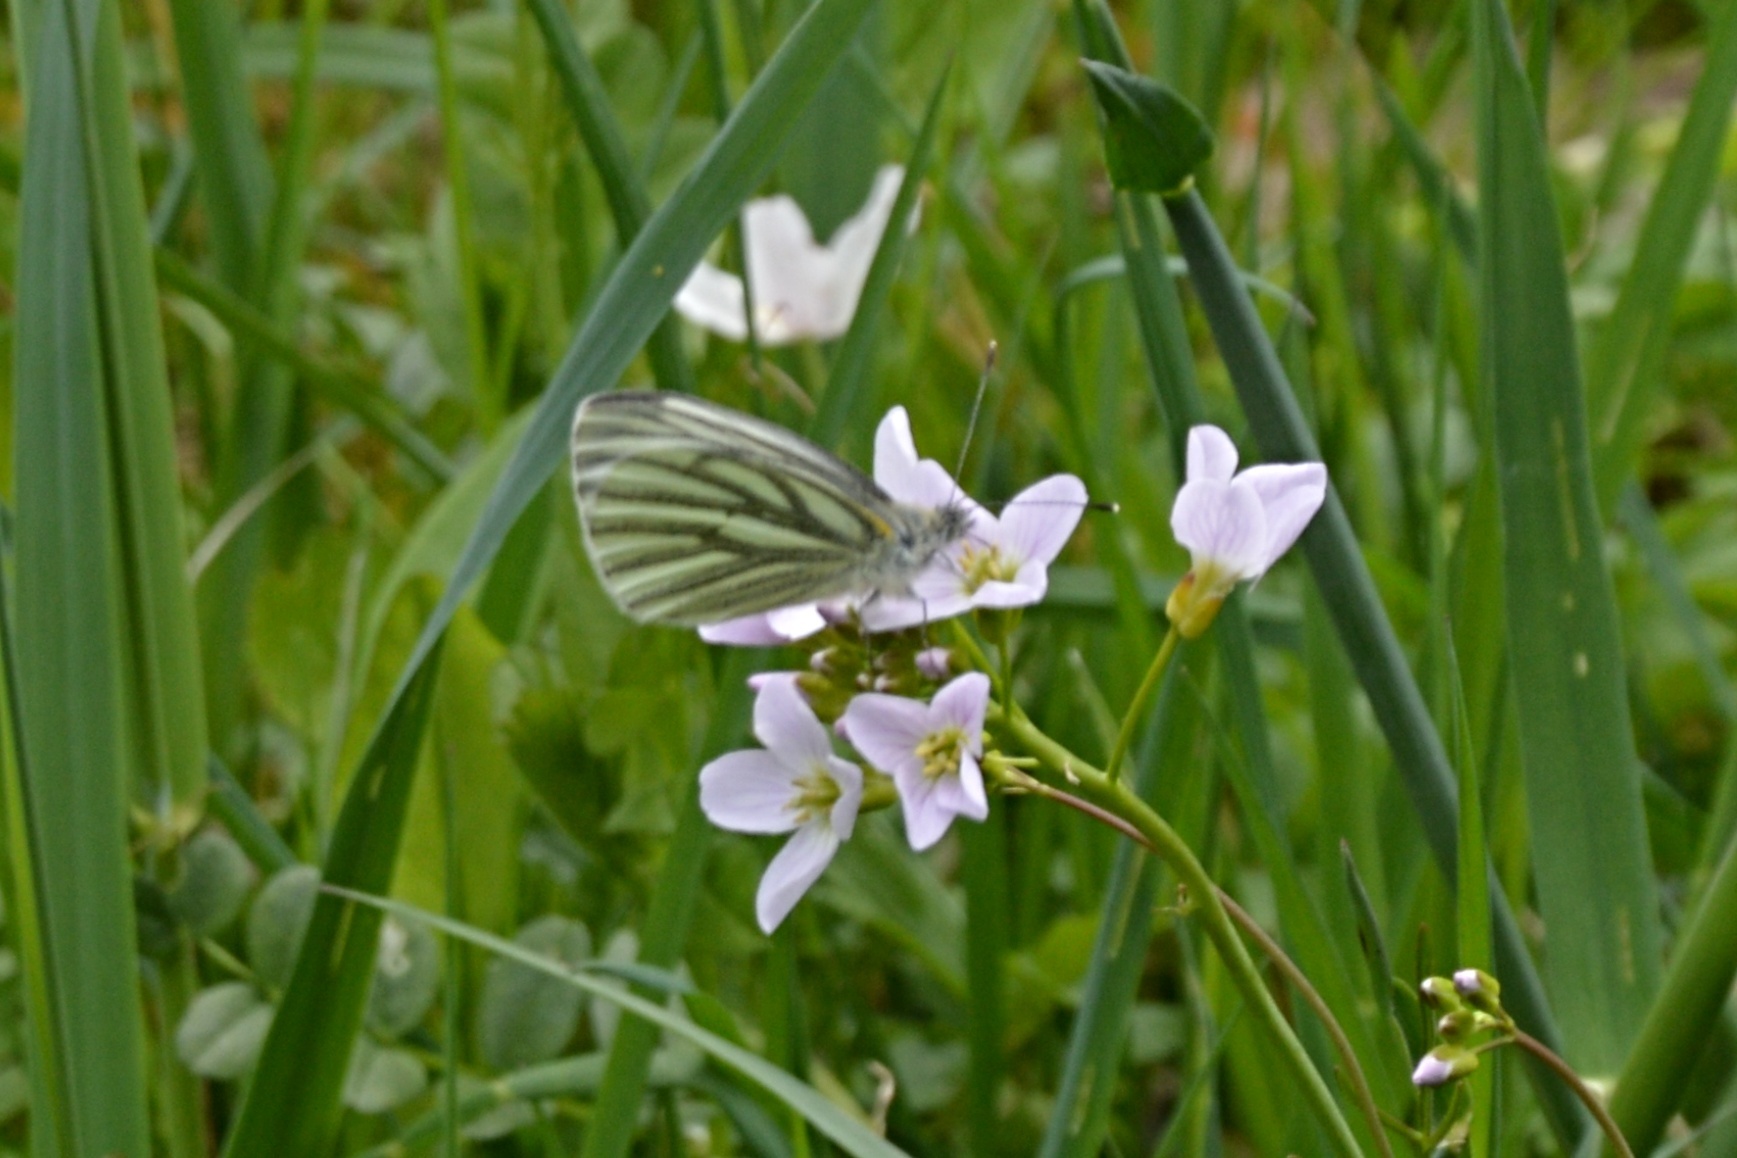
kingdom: Animalia
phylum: Arthropoda
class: Insecta
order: Lepidoptera
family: Pieridae
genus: Pieris
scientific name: Pieris napi
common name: Green-veined white
